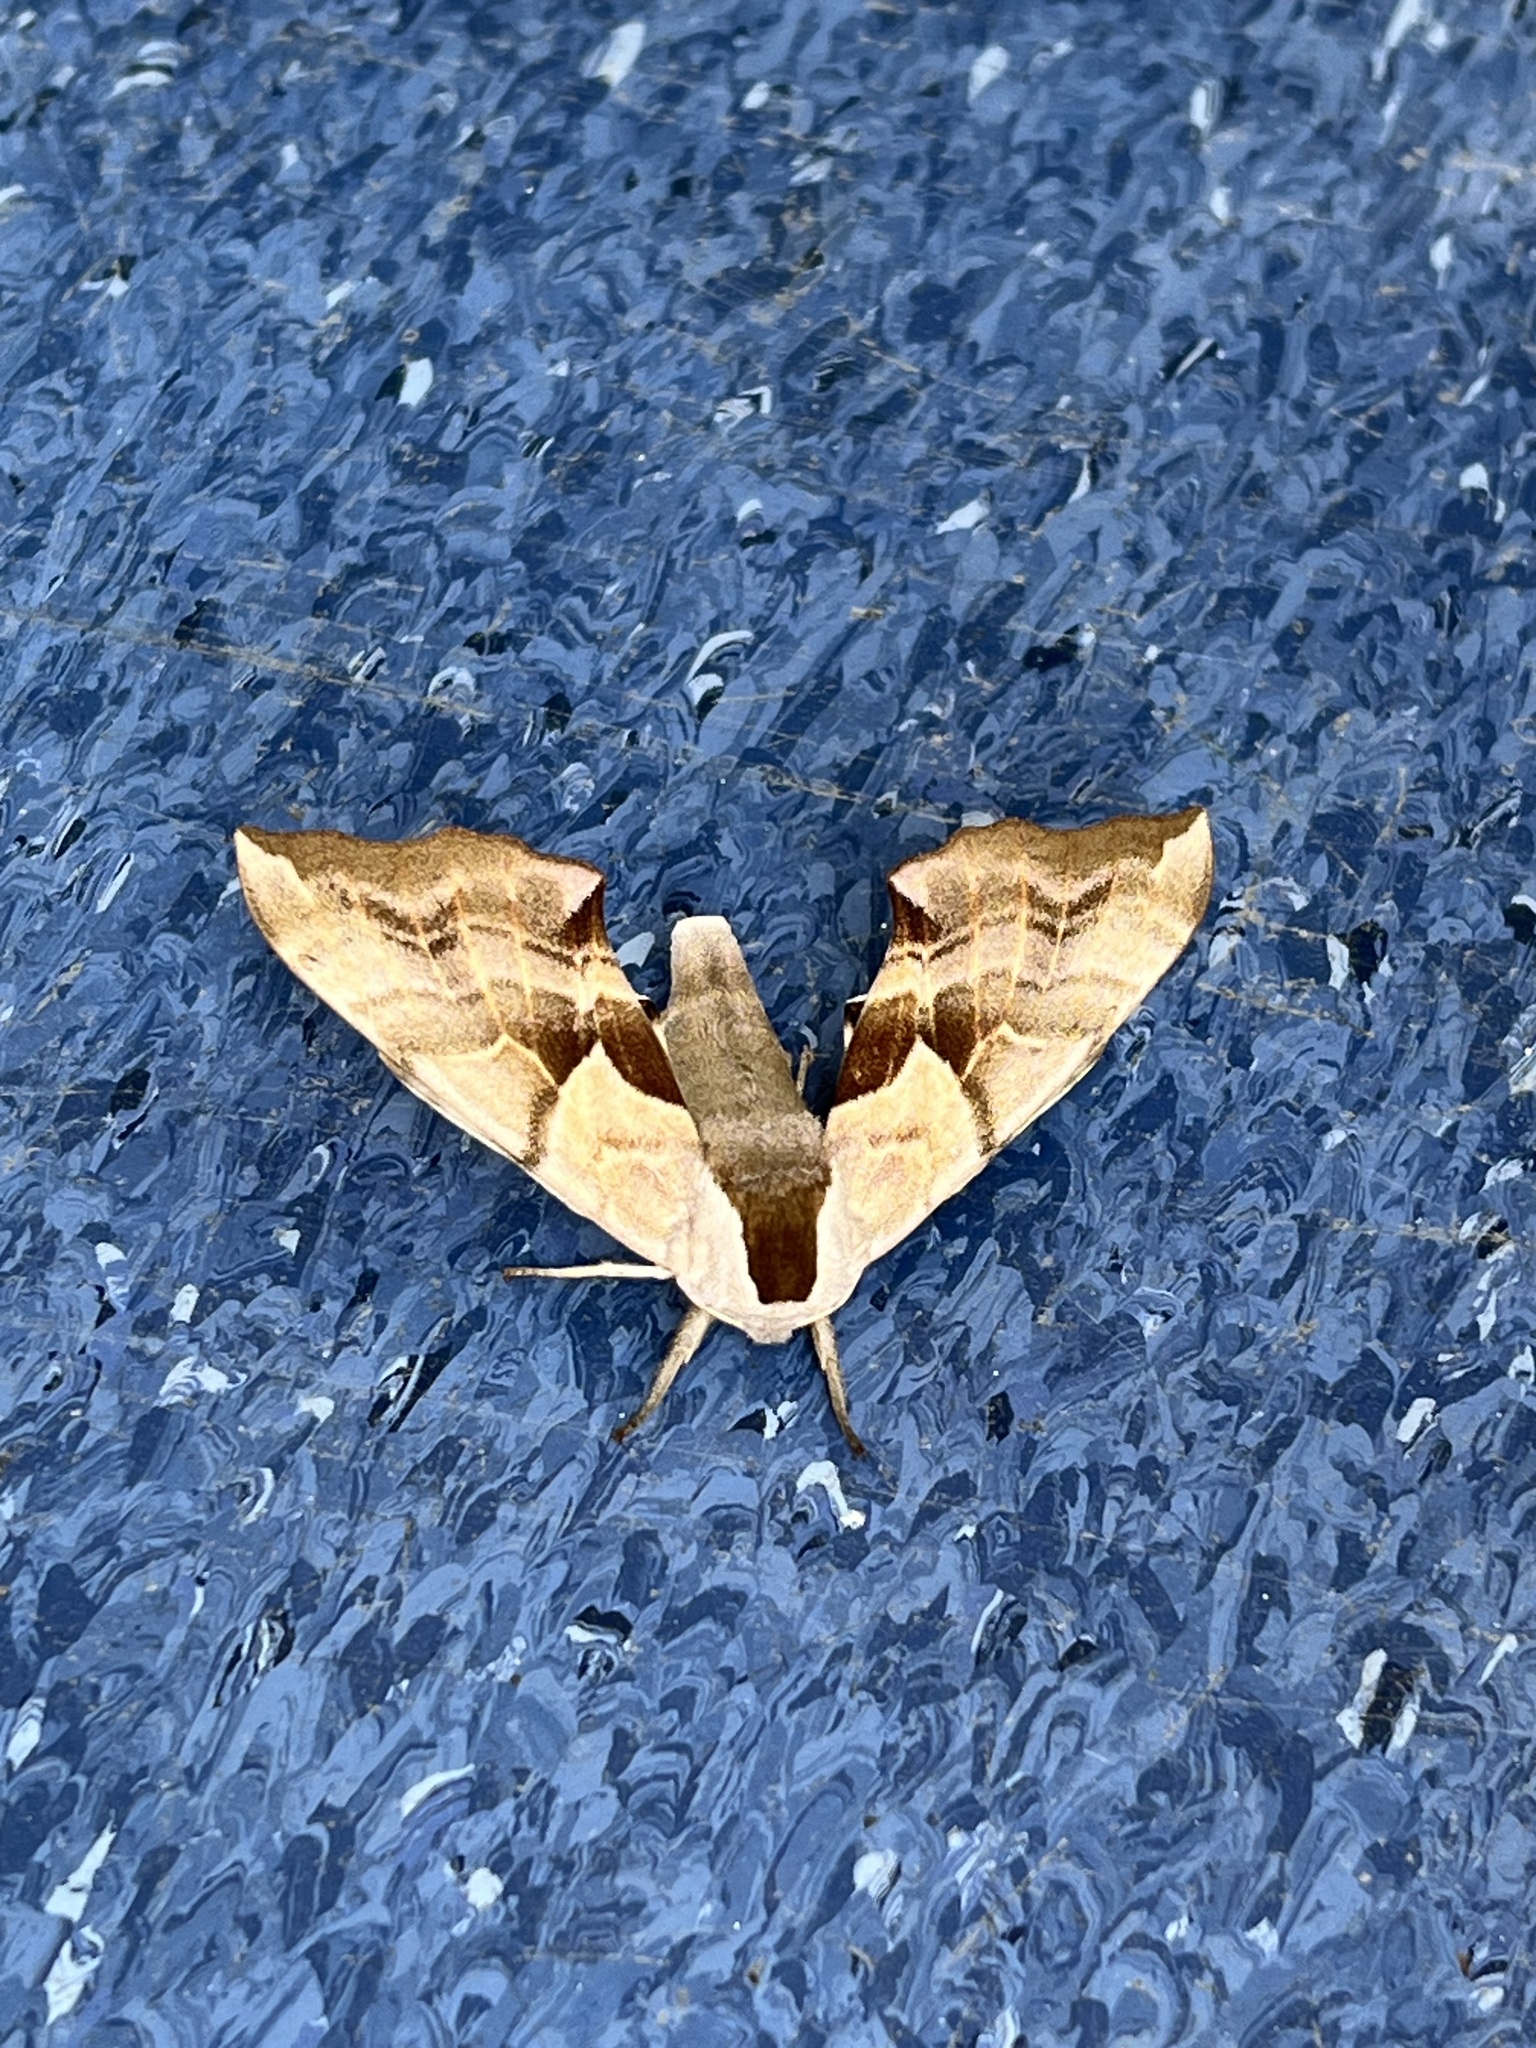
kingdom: Animalia
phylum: Arthropoda
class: Insecta
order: Lepidoptera
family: Sphingidae
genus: Smerinthus
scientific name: Smerinthus cerisyi
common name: Cerisy's sphinx moth
